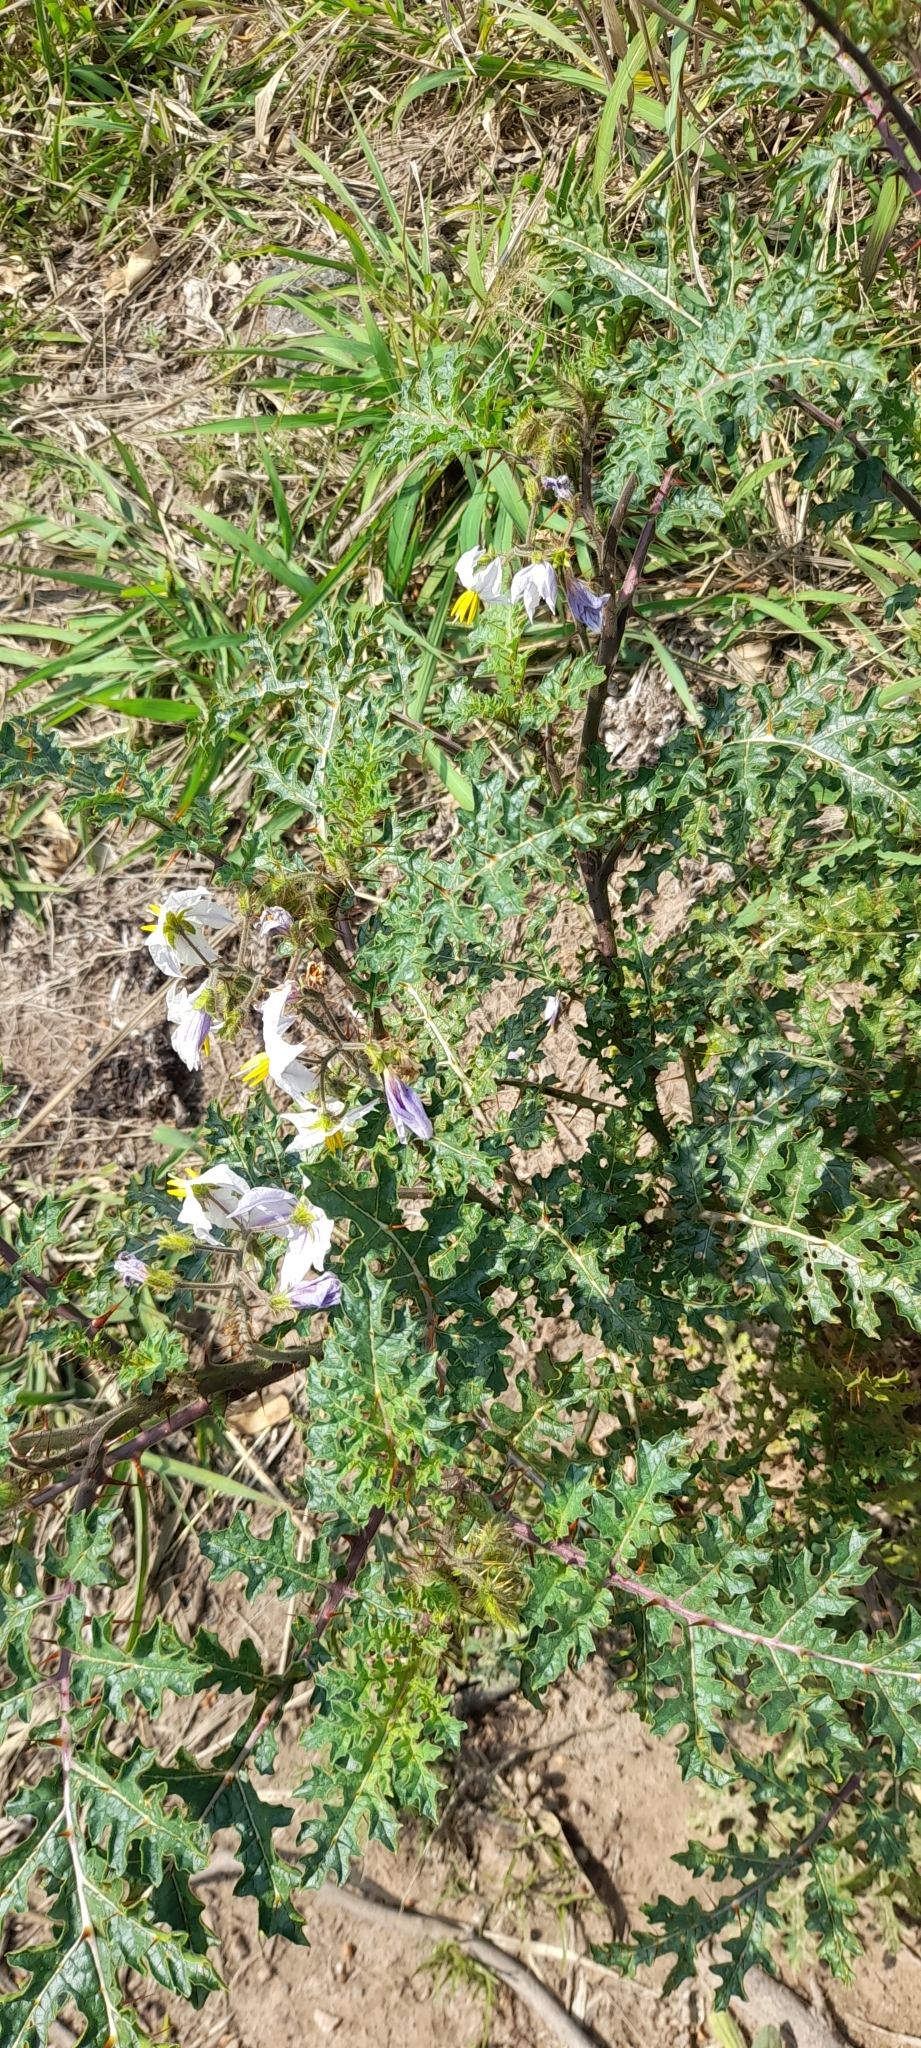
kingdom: Plantae
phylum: Tracheophyta
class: Magnoliopsida
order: Solanales
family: Solanaceae
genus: Solanum
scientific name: Solanum sisymbriifolium
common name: Red buffalo-bur
